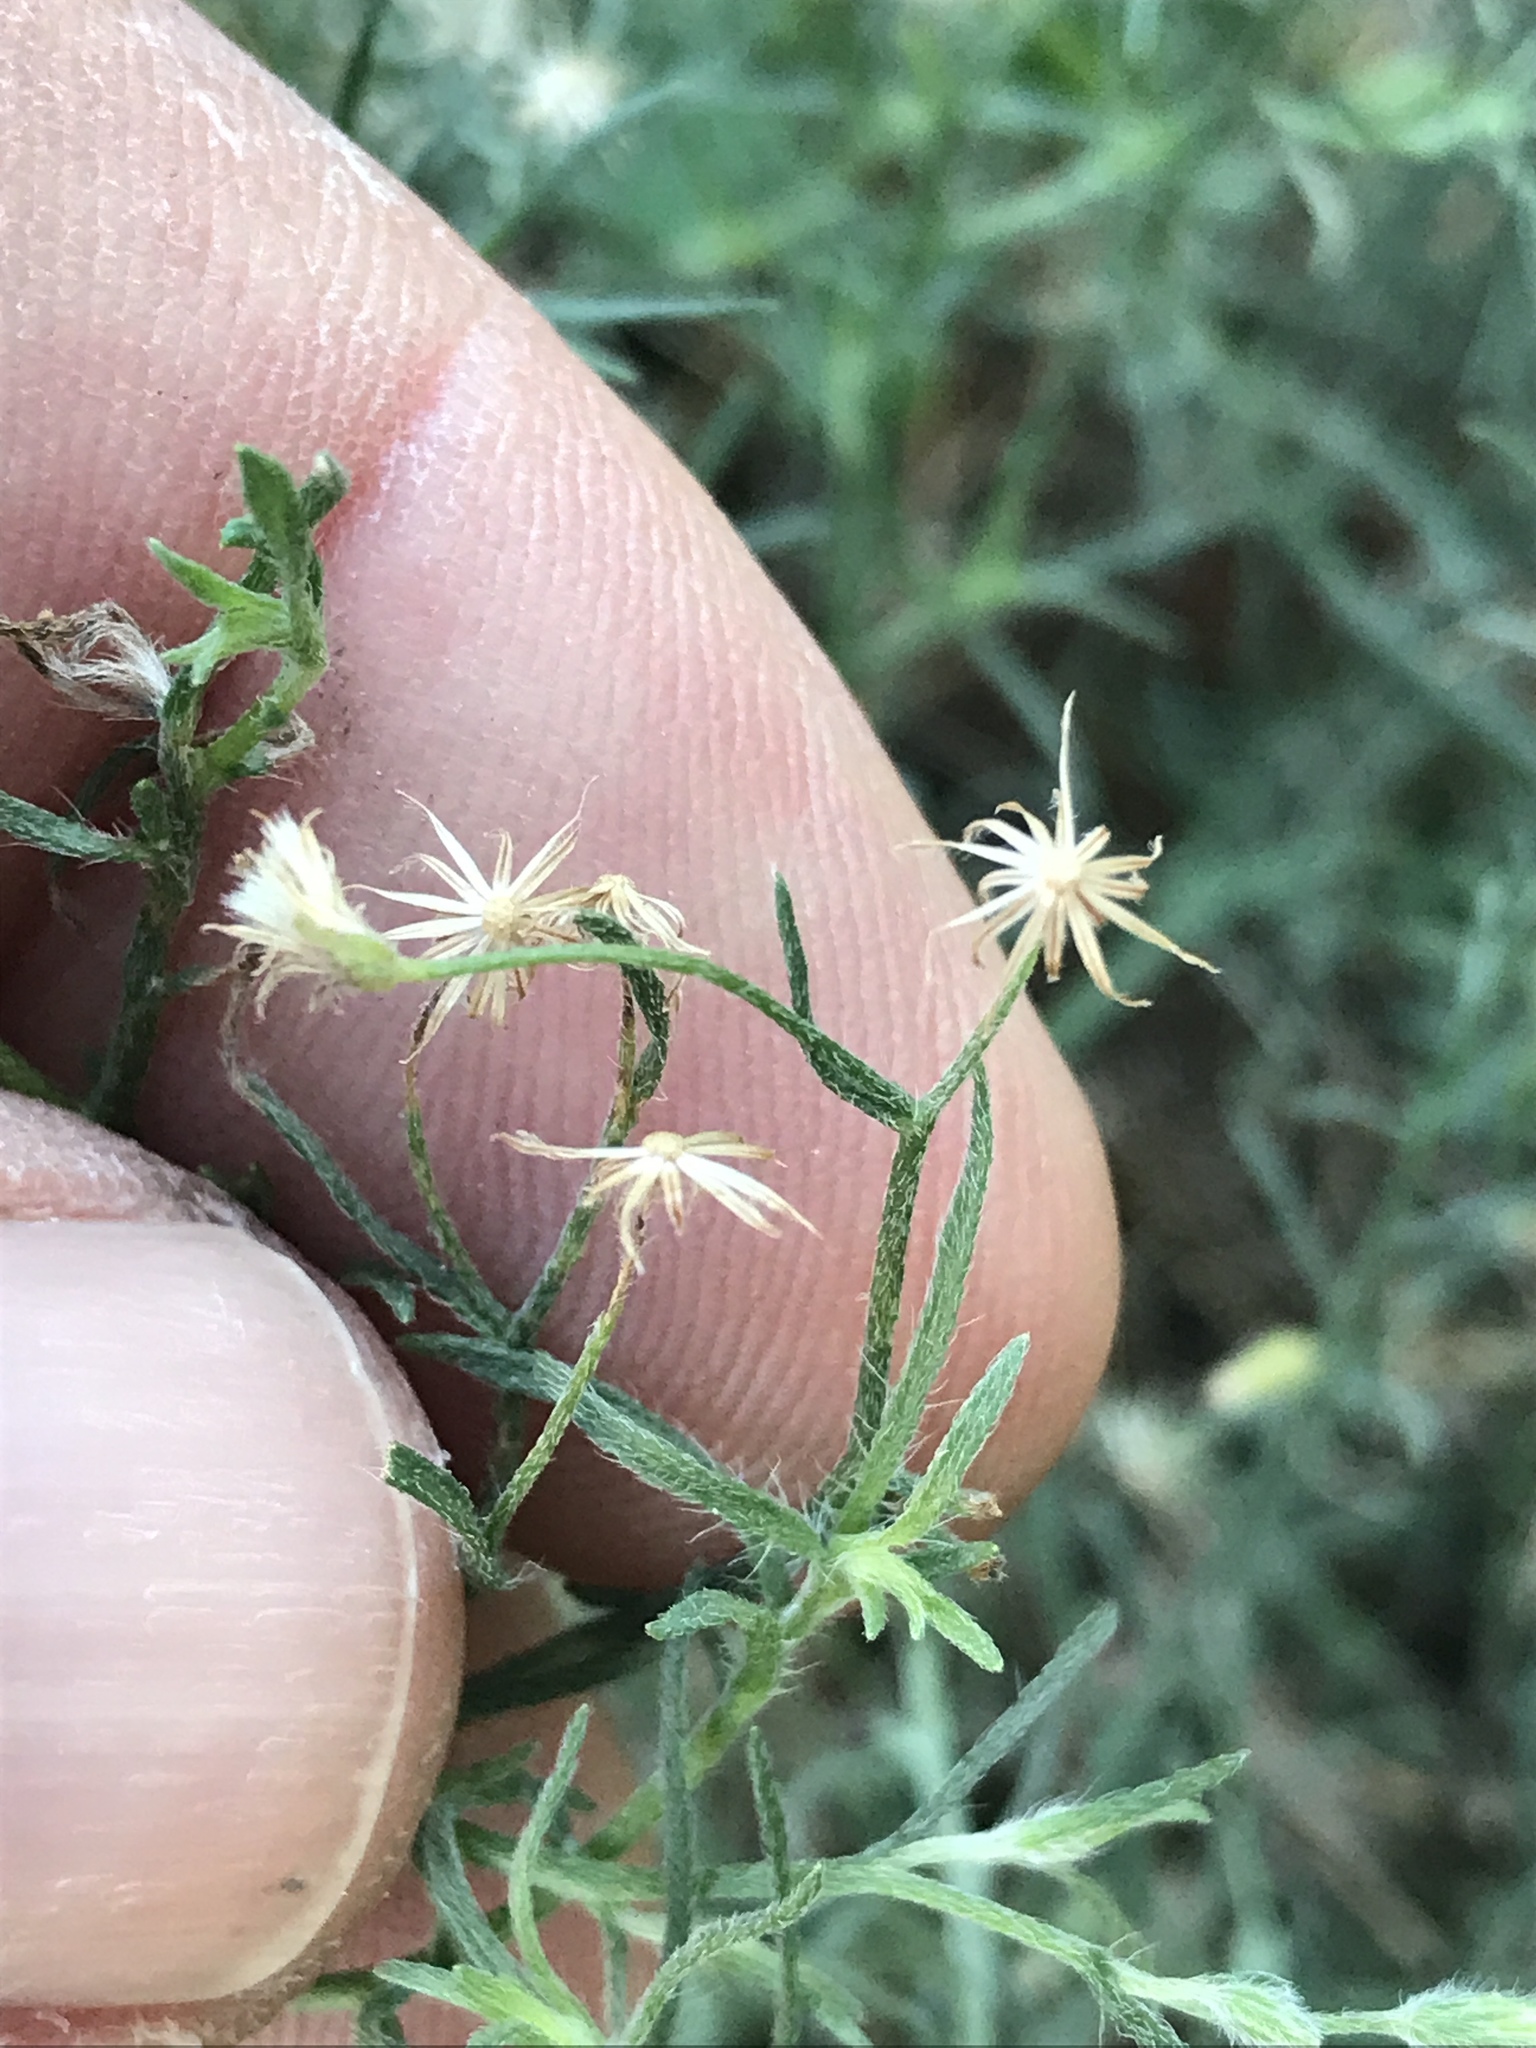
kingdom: Plantae
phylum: Tracheophyta
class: Magnoliopsida
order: Asterales
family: Asteraceae
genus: Erigeron
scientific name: Erigeron divaricatus
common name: Dwarf conyza
